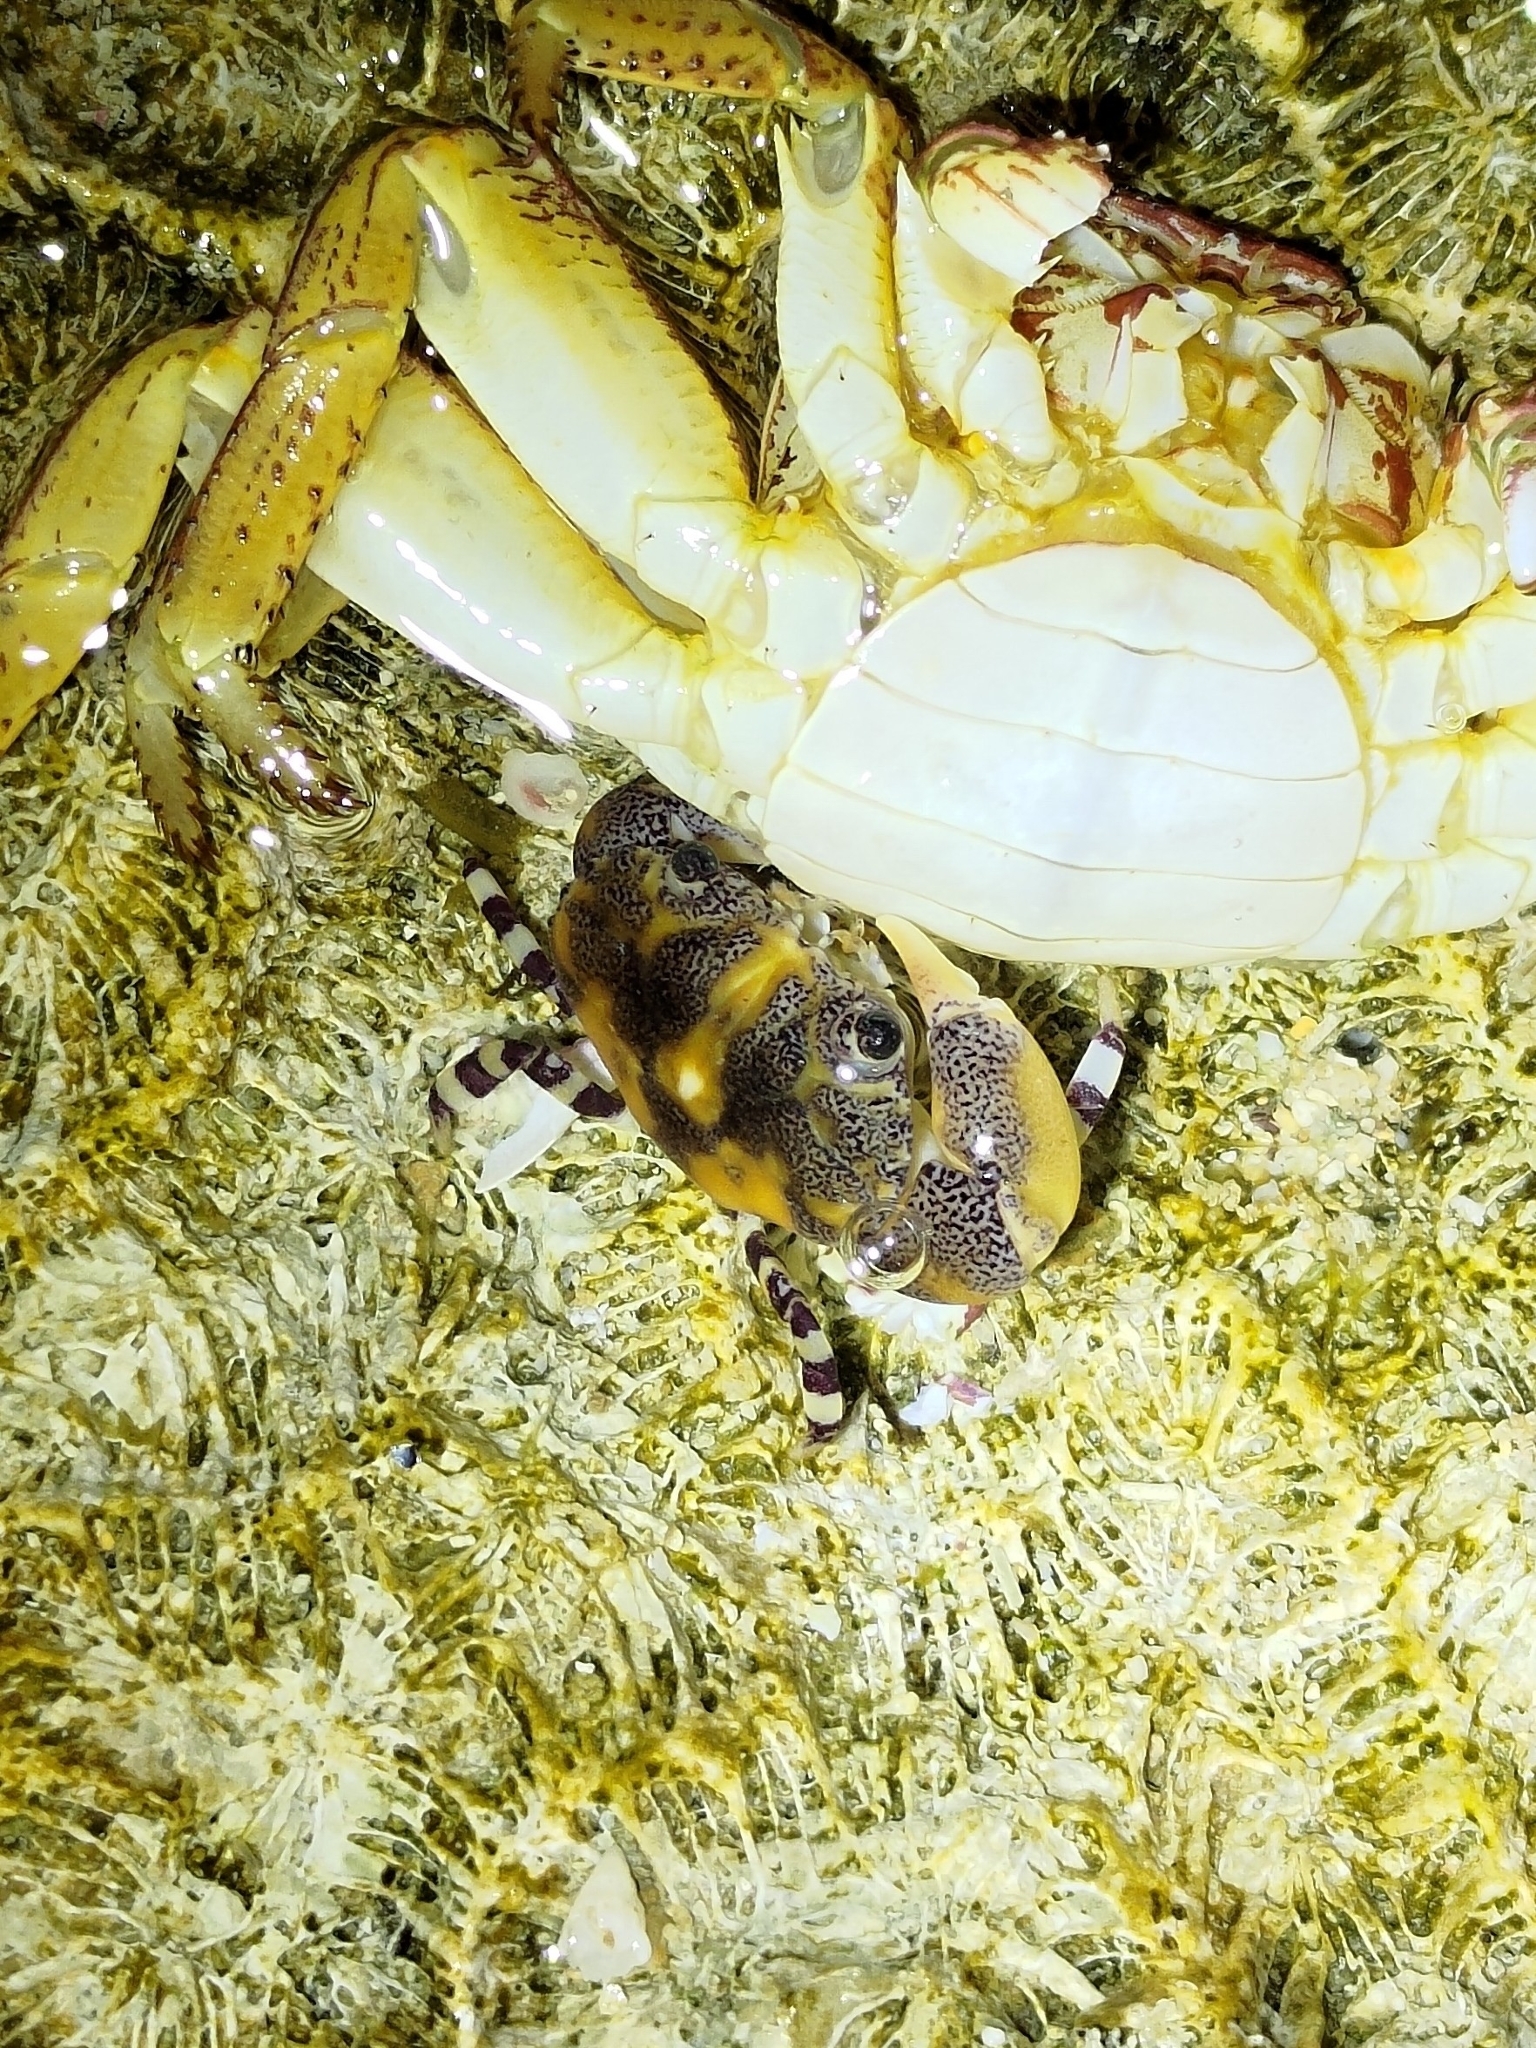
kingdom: Animalia
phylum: Arthropoda
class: Malacostraca
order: Decapoda
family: Oziidae
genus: Lydia
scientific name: Lydia annulipes
